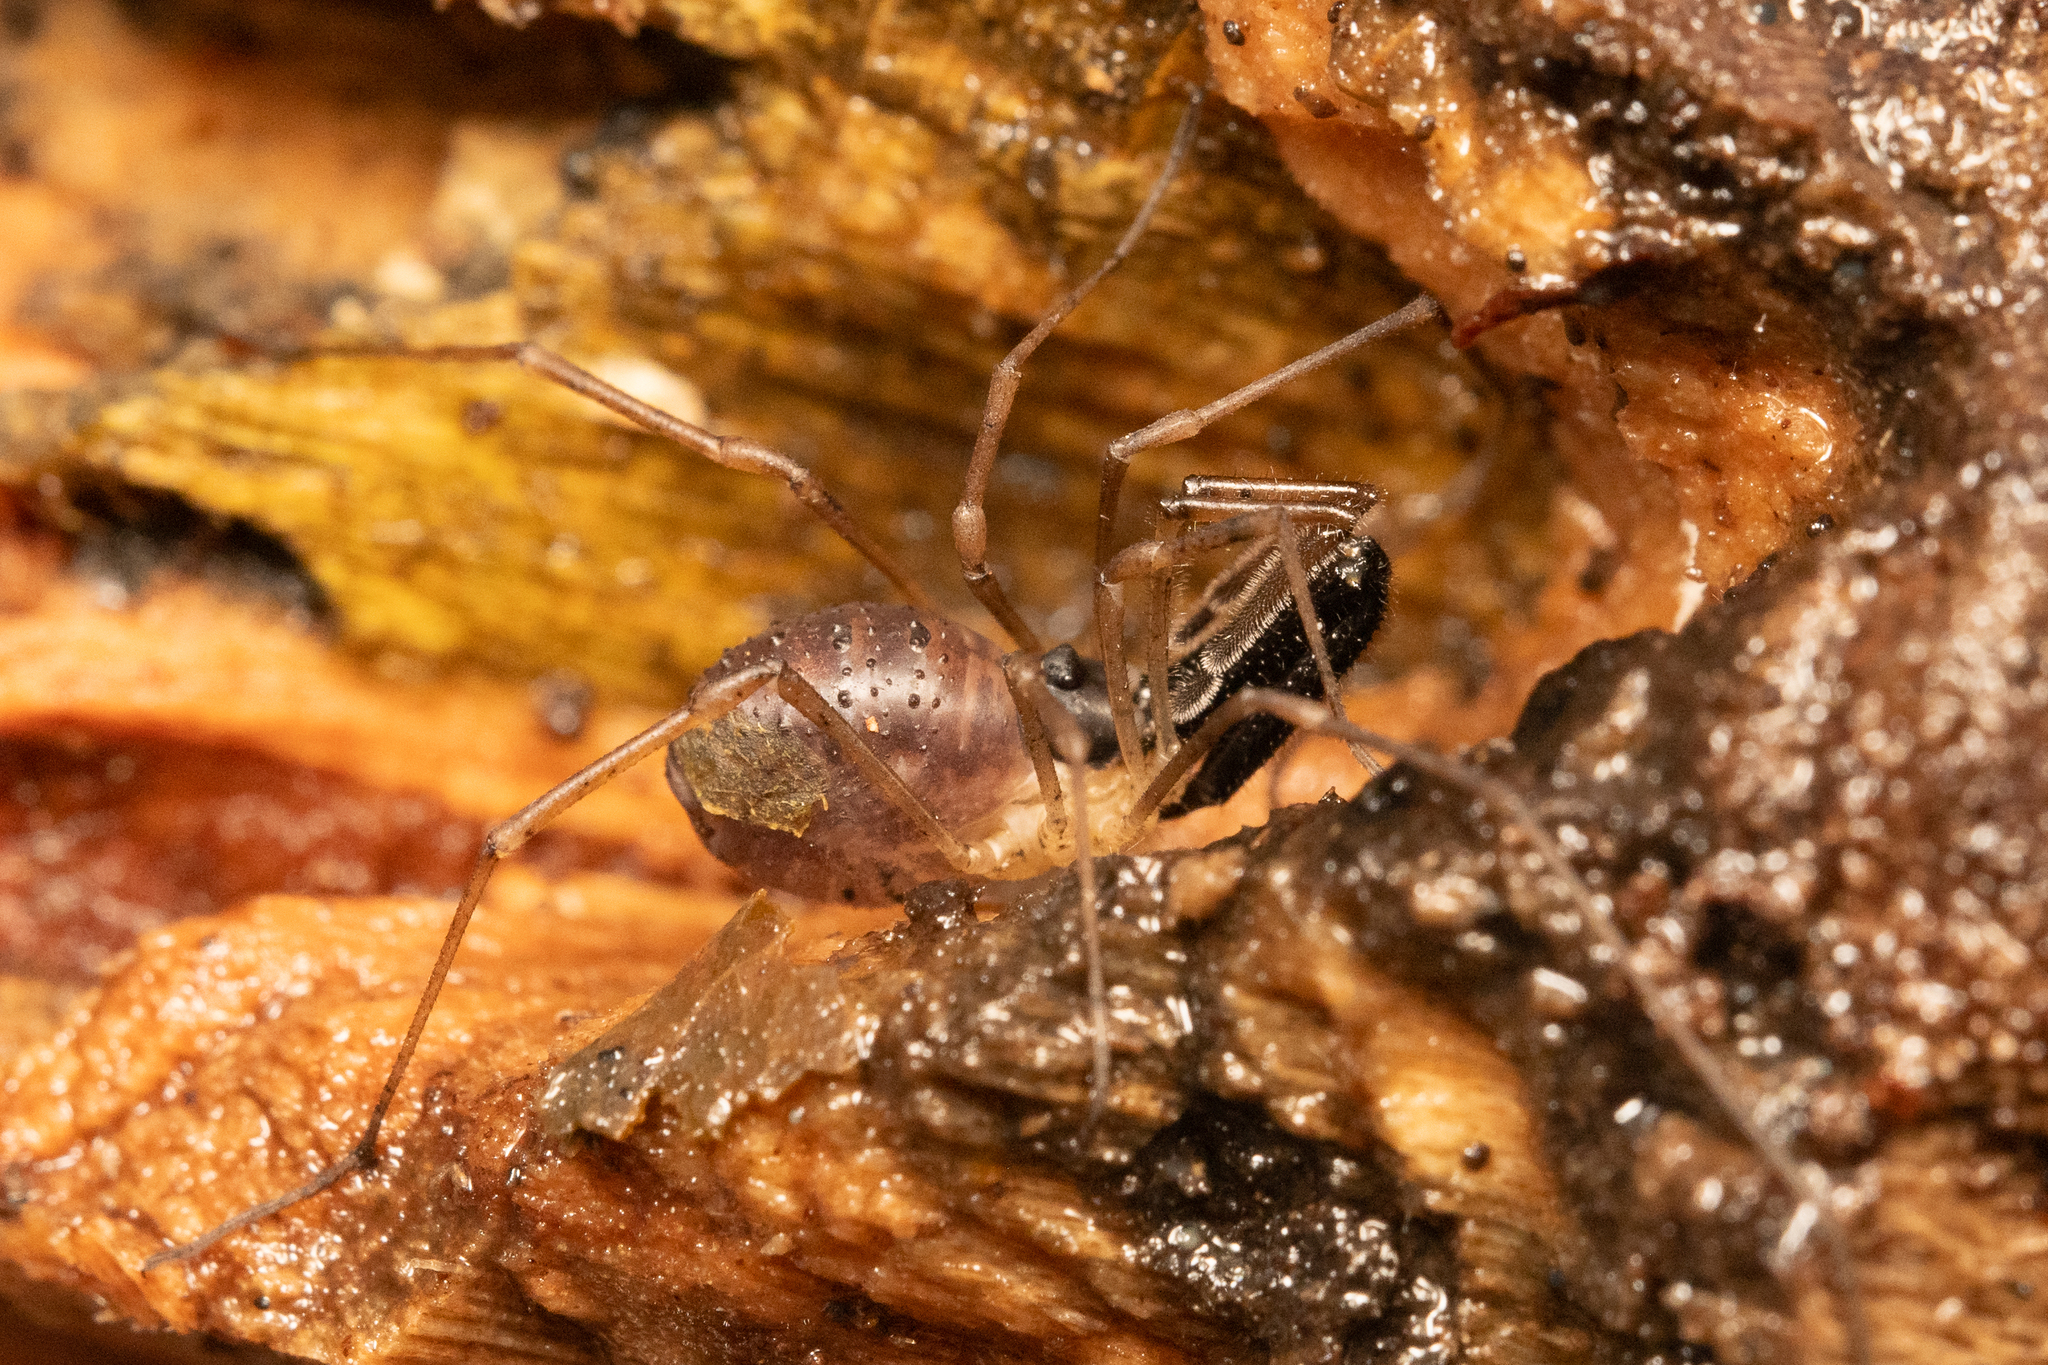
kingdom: Animalia
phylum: Arthropoda
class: Arachnida
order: Opiliones
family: Taracidae
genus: Taracus
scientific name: Taracus pallipes
